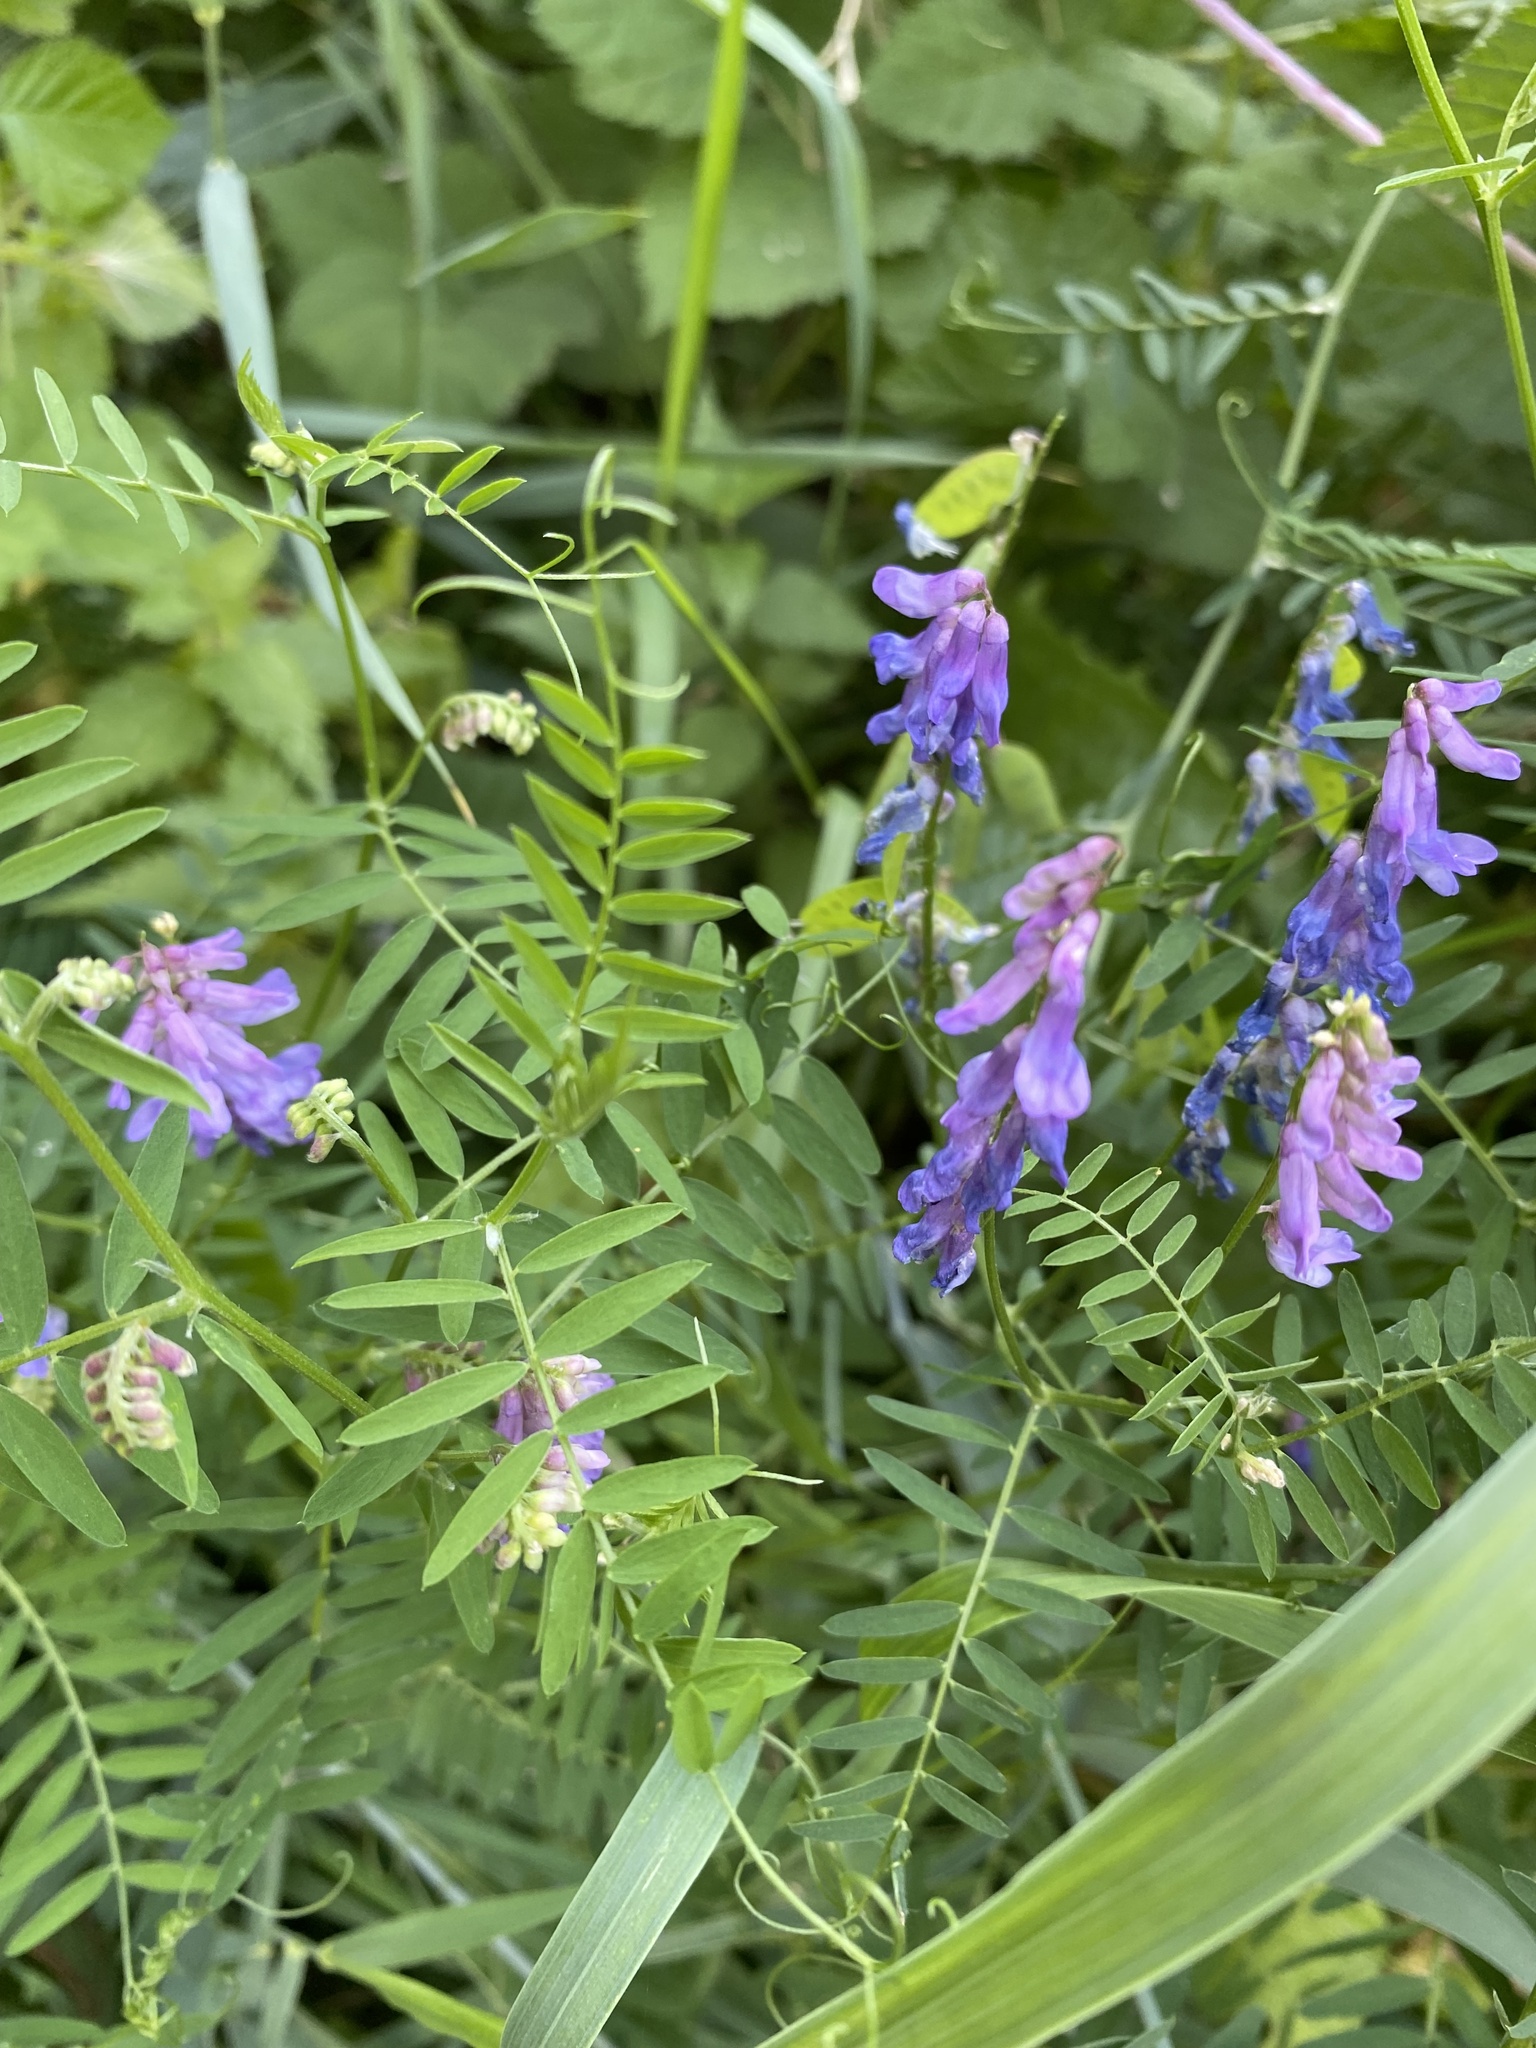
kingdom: Plantae
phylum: Tracheophyta
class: Magnoliopsida
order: Fabales
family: Fabaceae
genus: Vicia
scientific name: Vicia cracca
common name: Bird vetch
